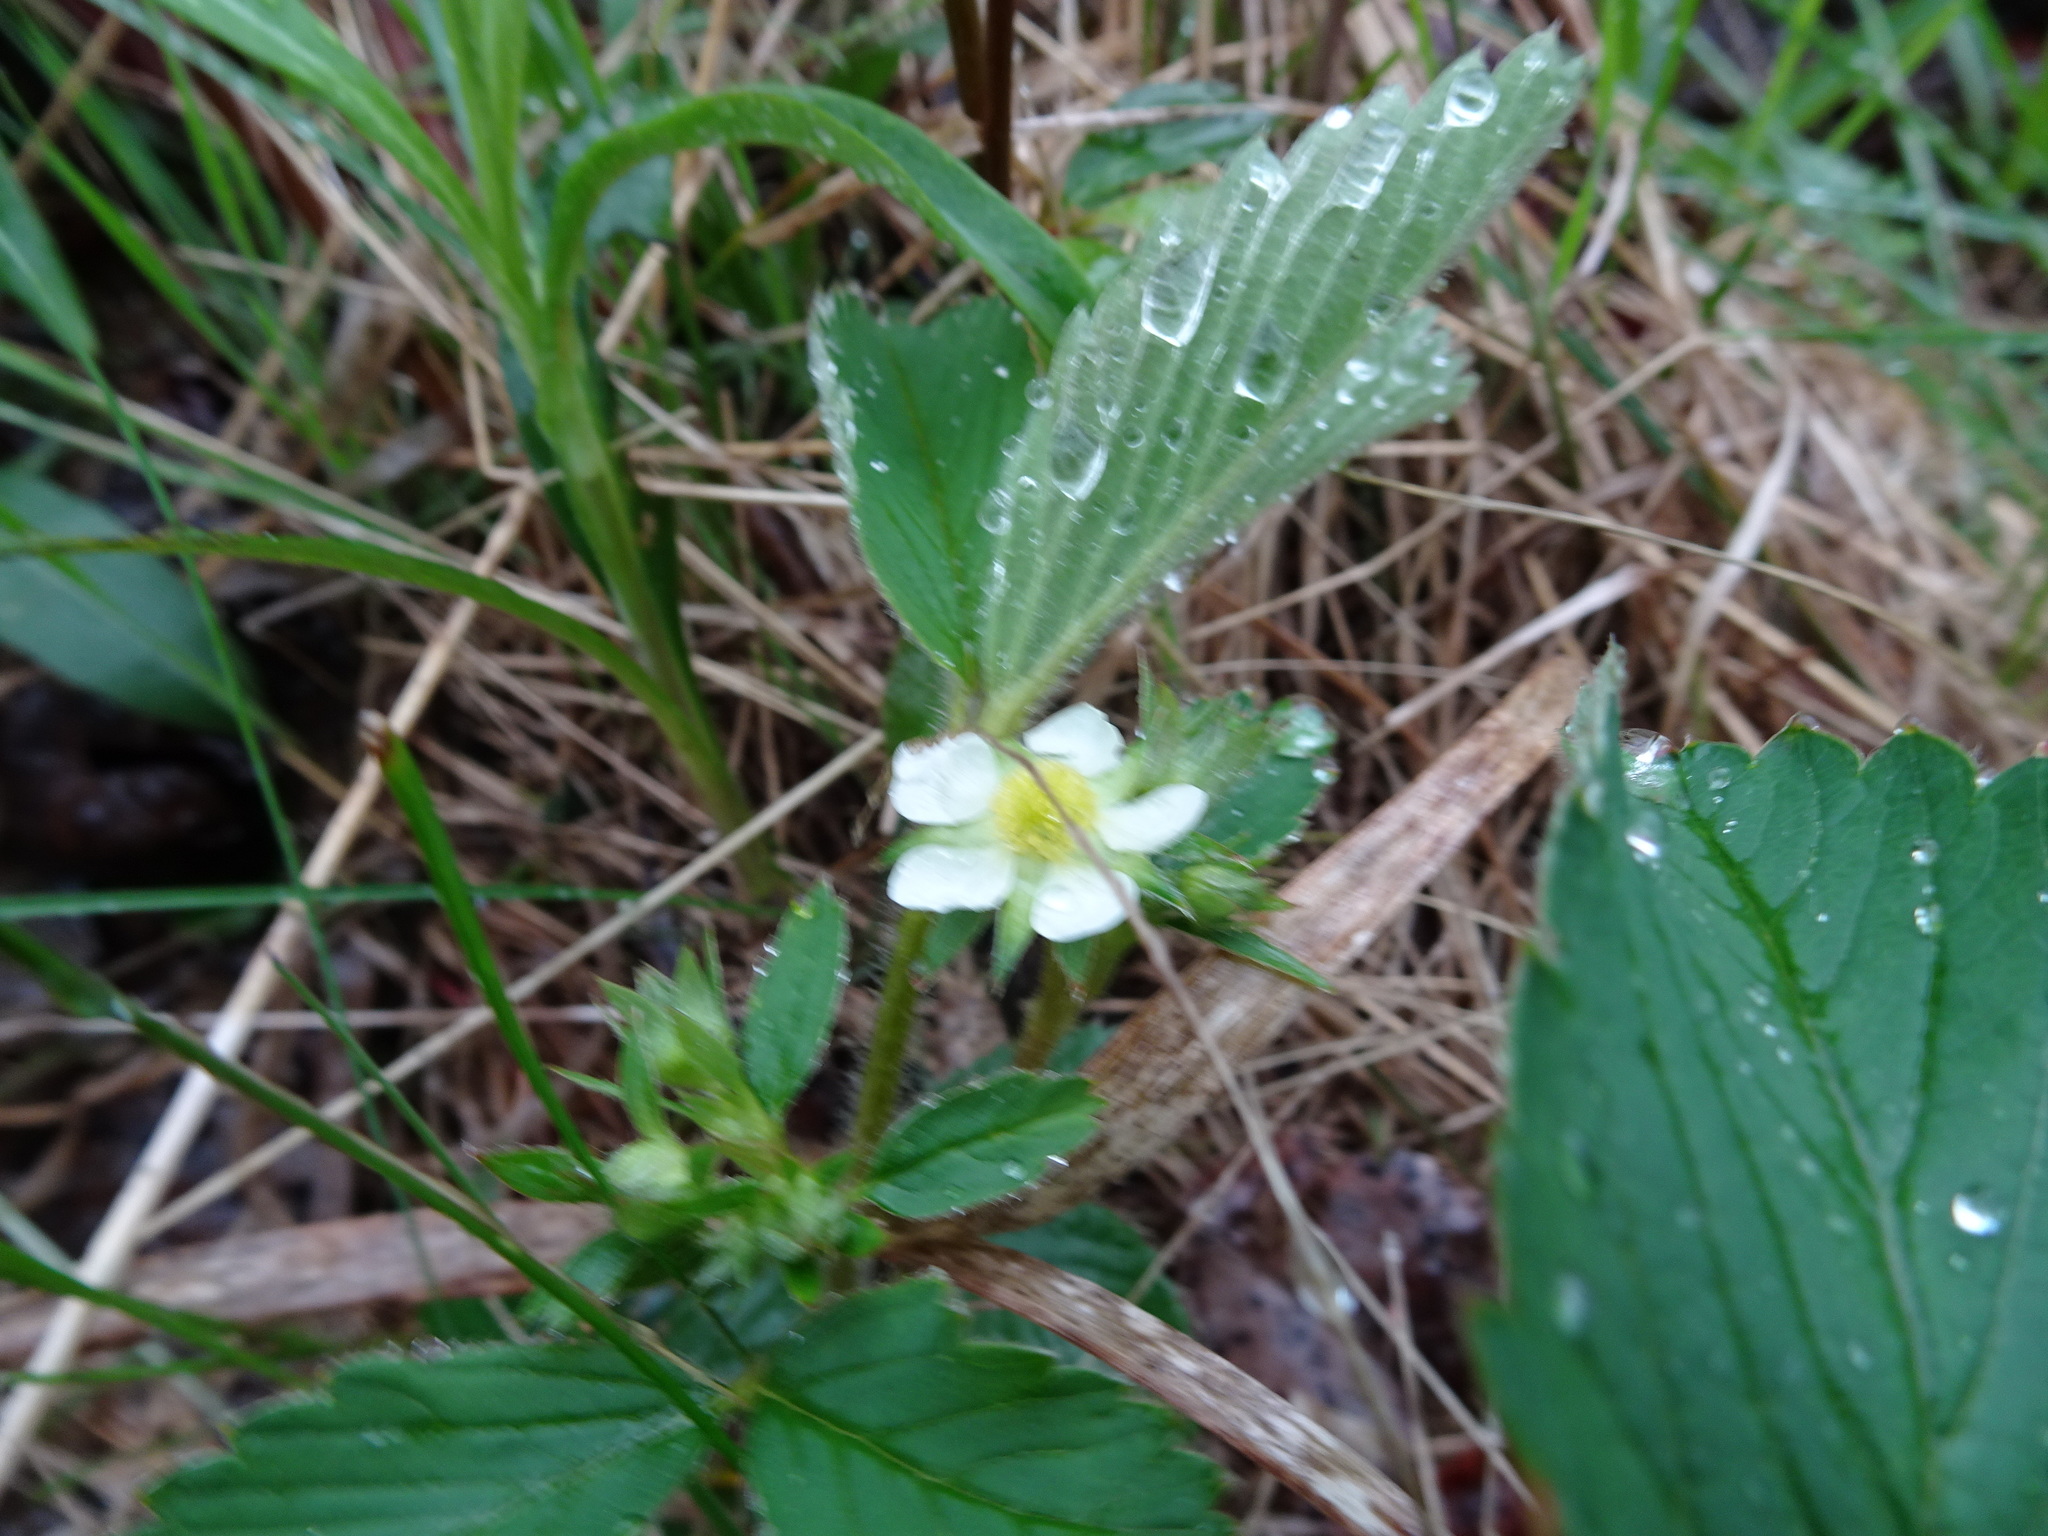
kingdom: Plantae
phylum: Tracheophyta
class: Magnoliopsida
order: Rosales
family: Rosaceae
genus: Fragaria
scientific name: Fragaria virginiana
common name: Thickleaved wild strawberry
